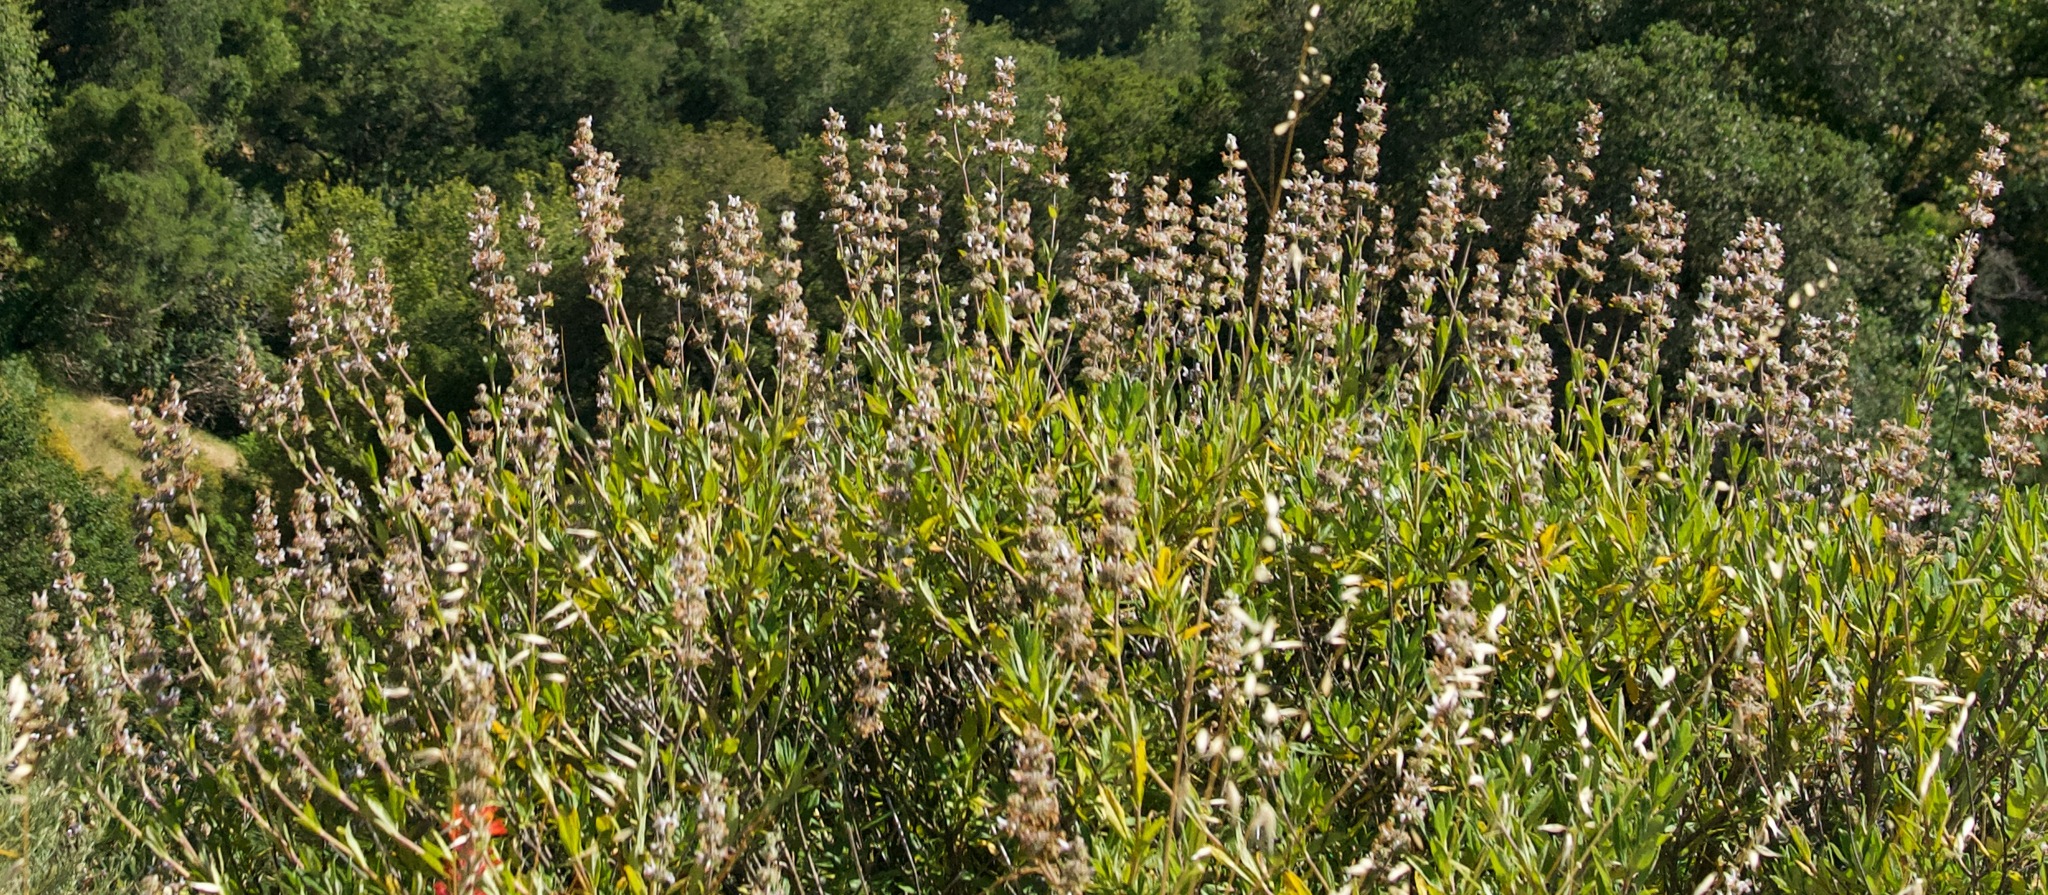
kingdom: Plantae
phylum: Tracheophyta
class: Magnoliopsida
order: Lamiales
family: Lamiaceae
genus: Salvia
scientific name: Salvia mellifera
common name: Black sage
